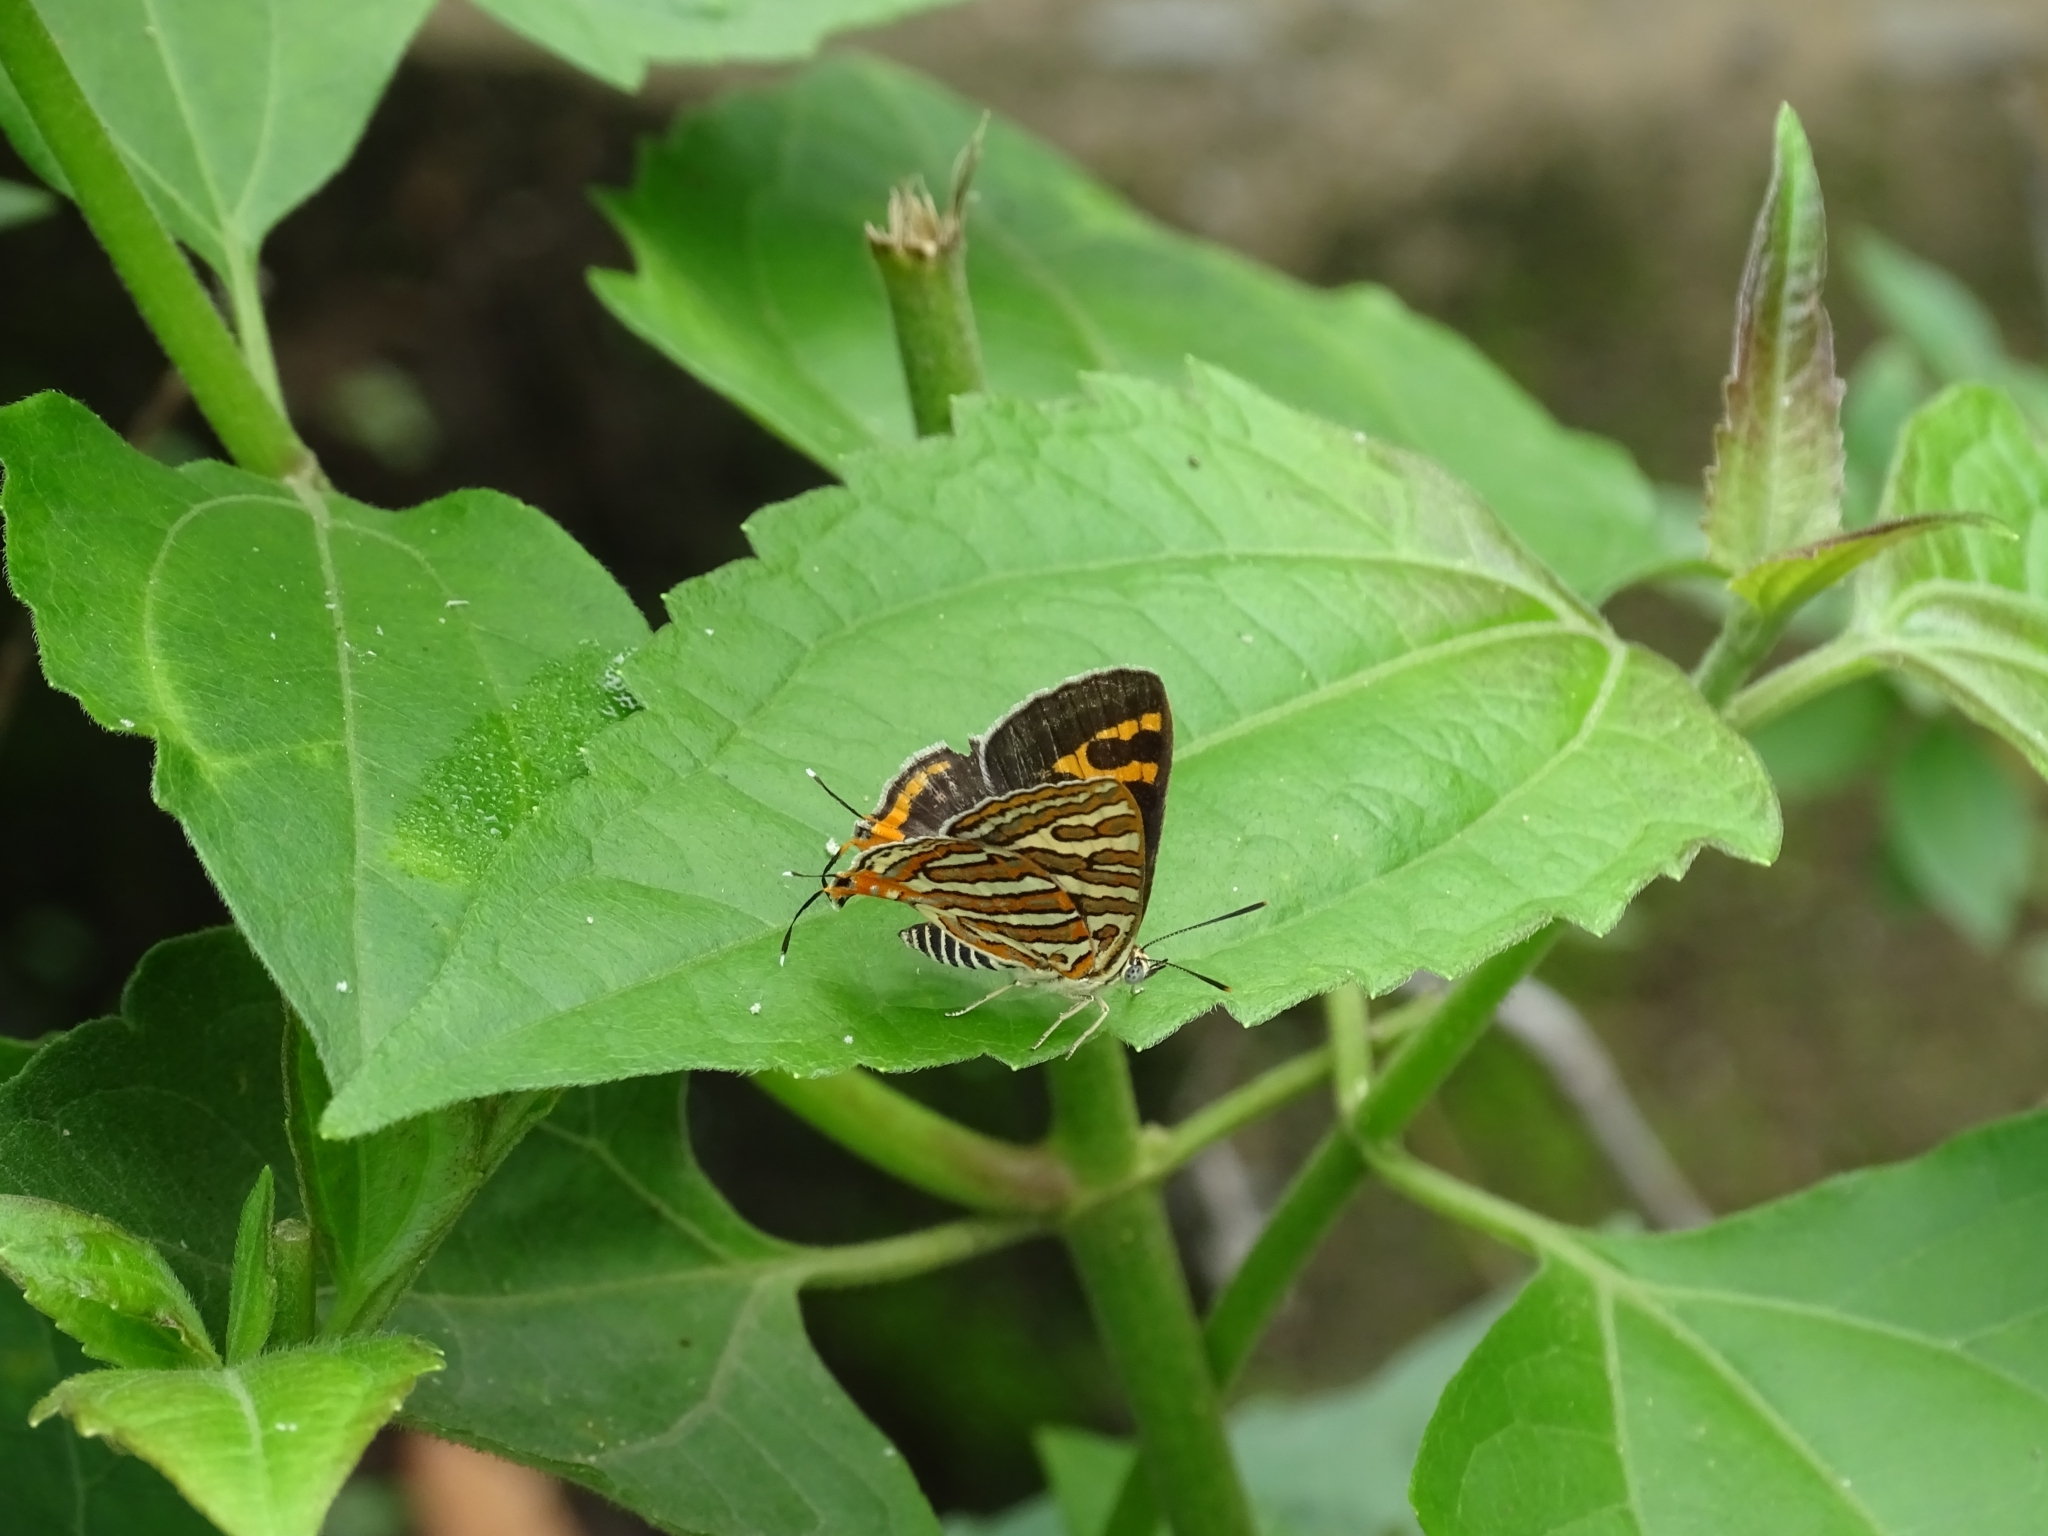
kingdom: Animalia
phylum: Arthropoda
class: Insecta
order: Lepidoptera
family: Lycaenidae
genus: Cigaritis
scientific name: Cigaritis vulcanus
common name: Common silverline
